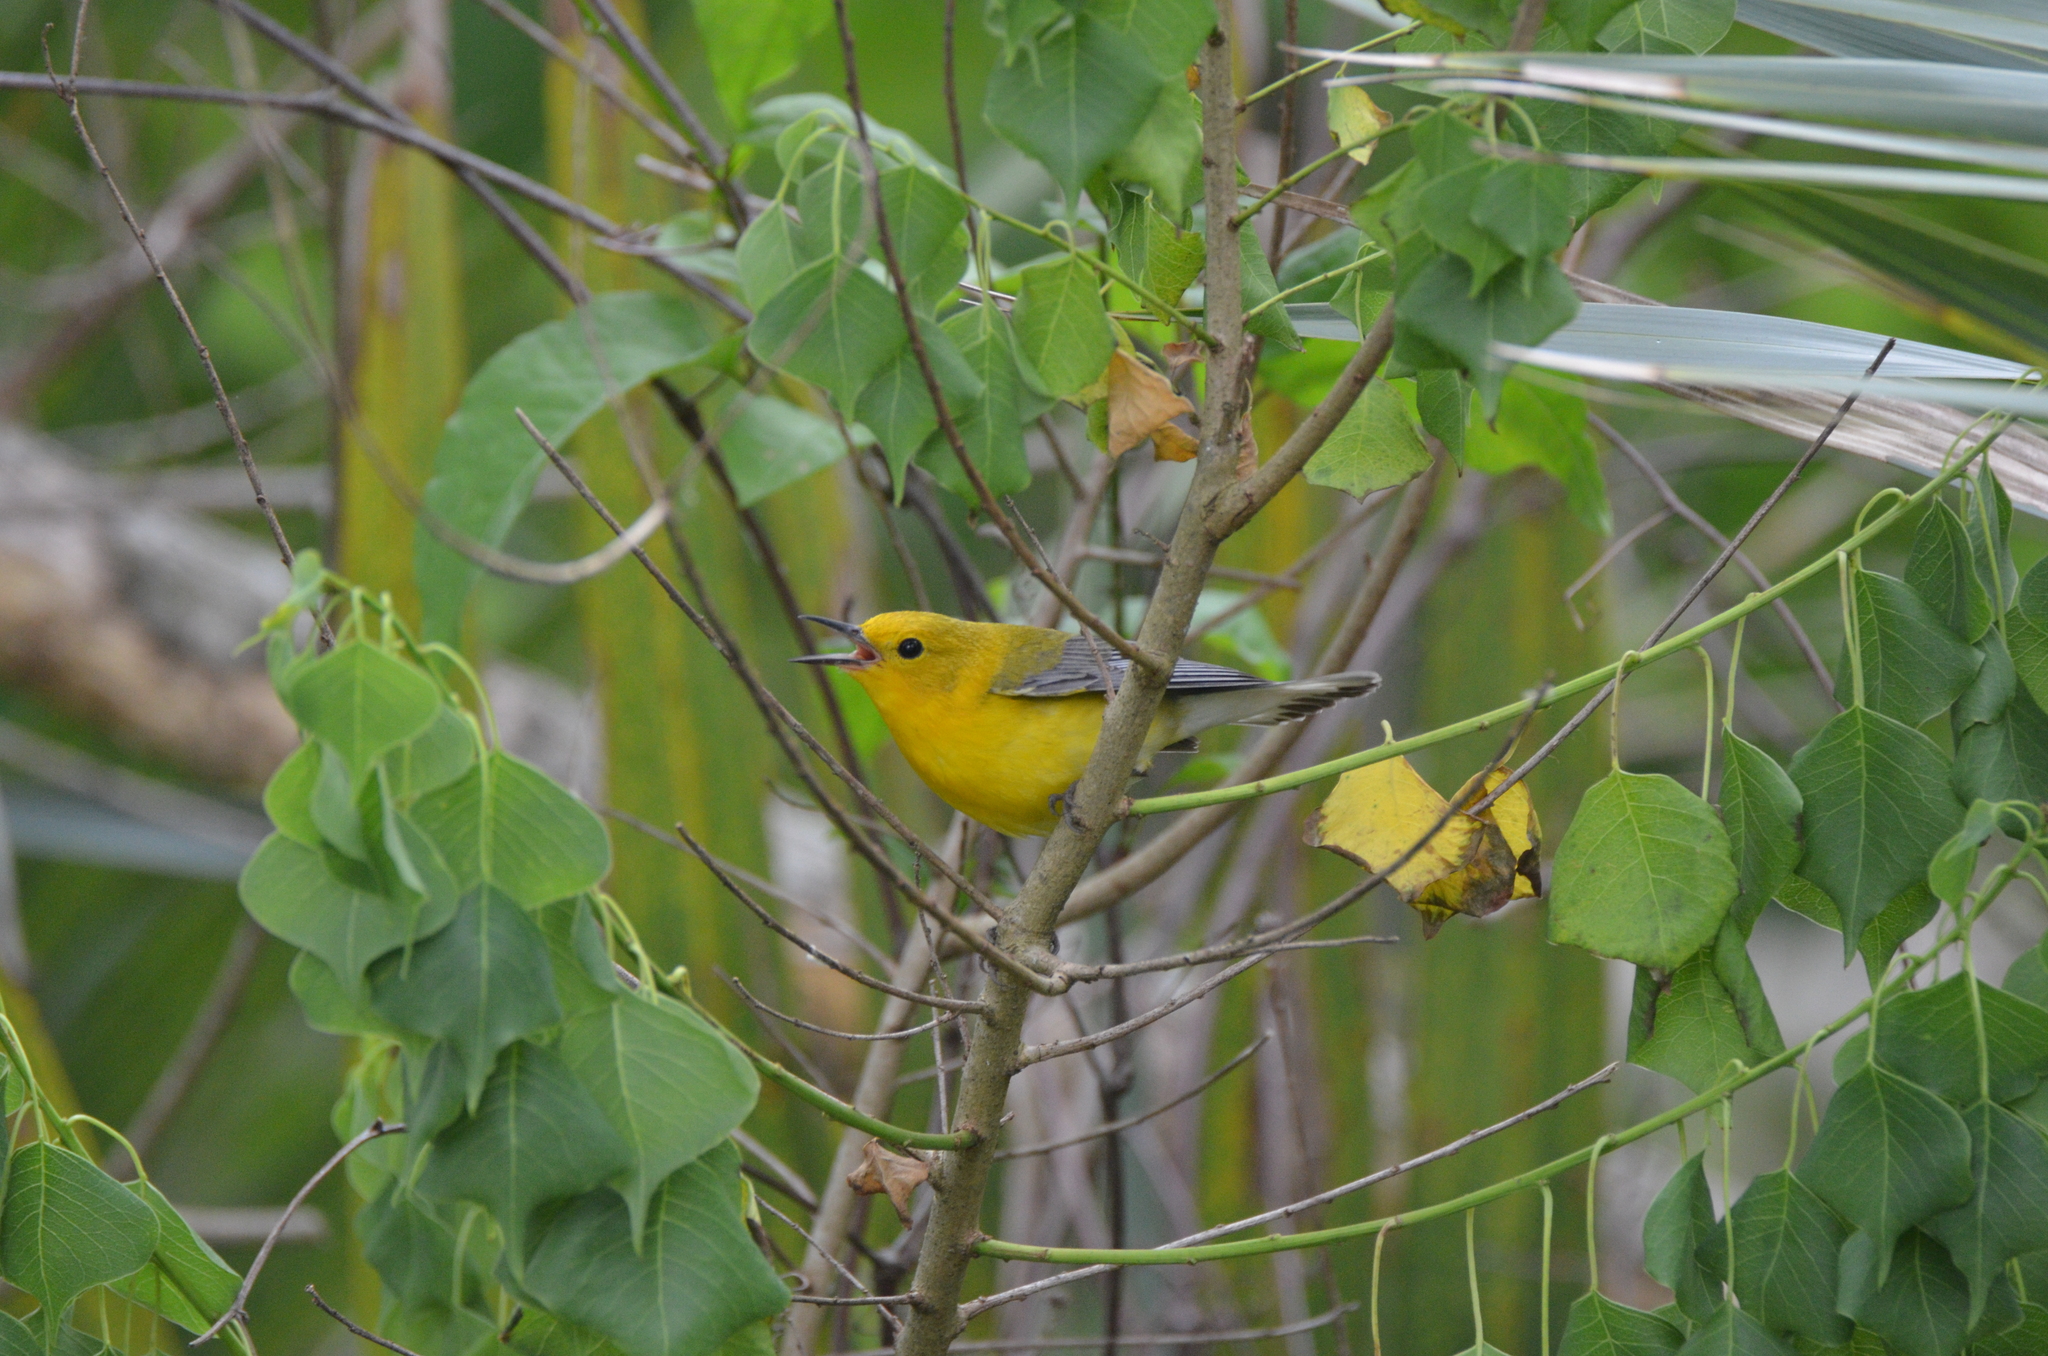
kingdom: Animalia
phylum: Chordata
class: Aves
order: Passeriformes
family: Parulidae
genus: Protonotaria
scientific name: Protonotaria citrea
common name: Prothonotary warbler
